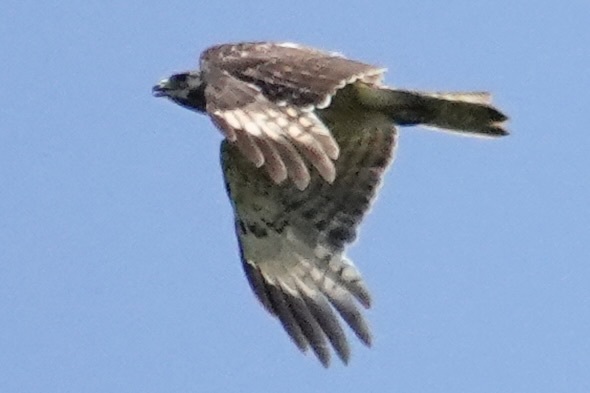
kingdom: Animalia
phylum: Chordata
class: Aves
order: Accipitriformes
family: Accipitridae
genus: Buteo
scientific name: Buteo lineatus
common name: Red-shouldered hawk
